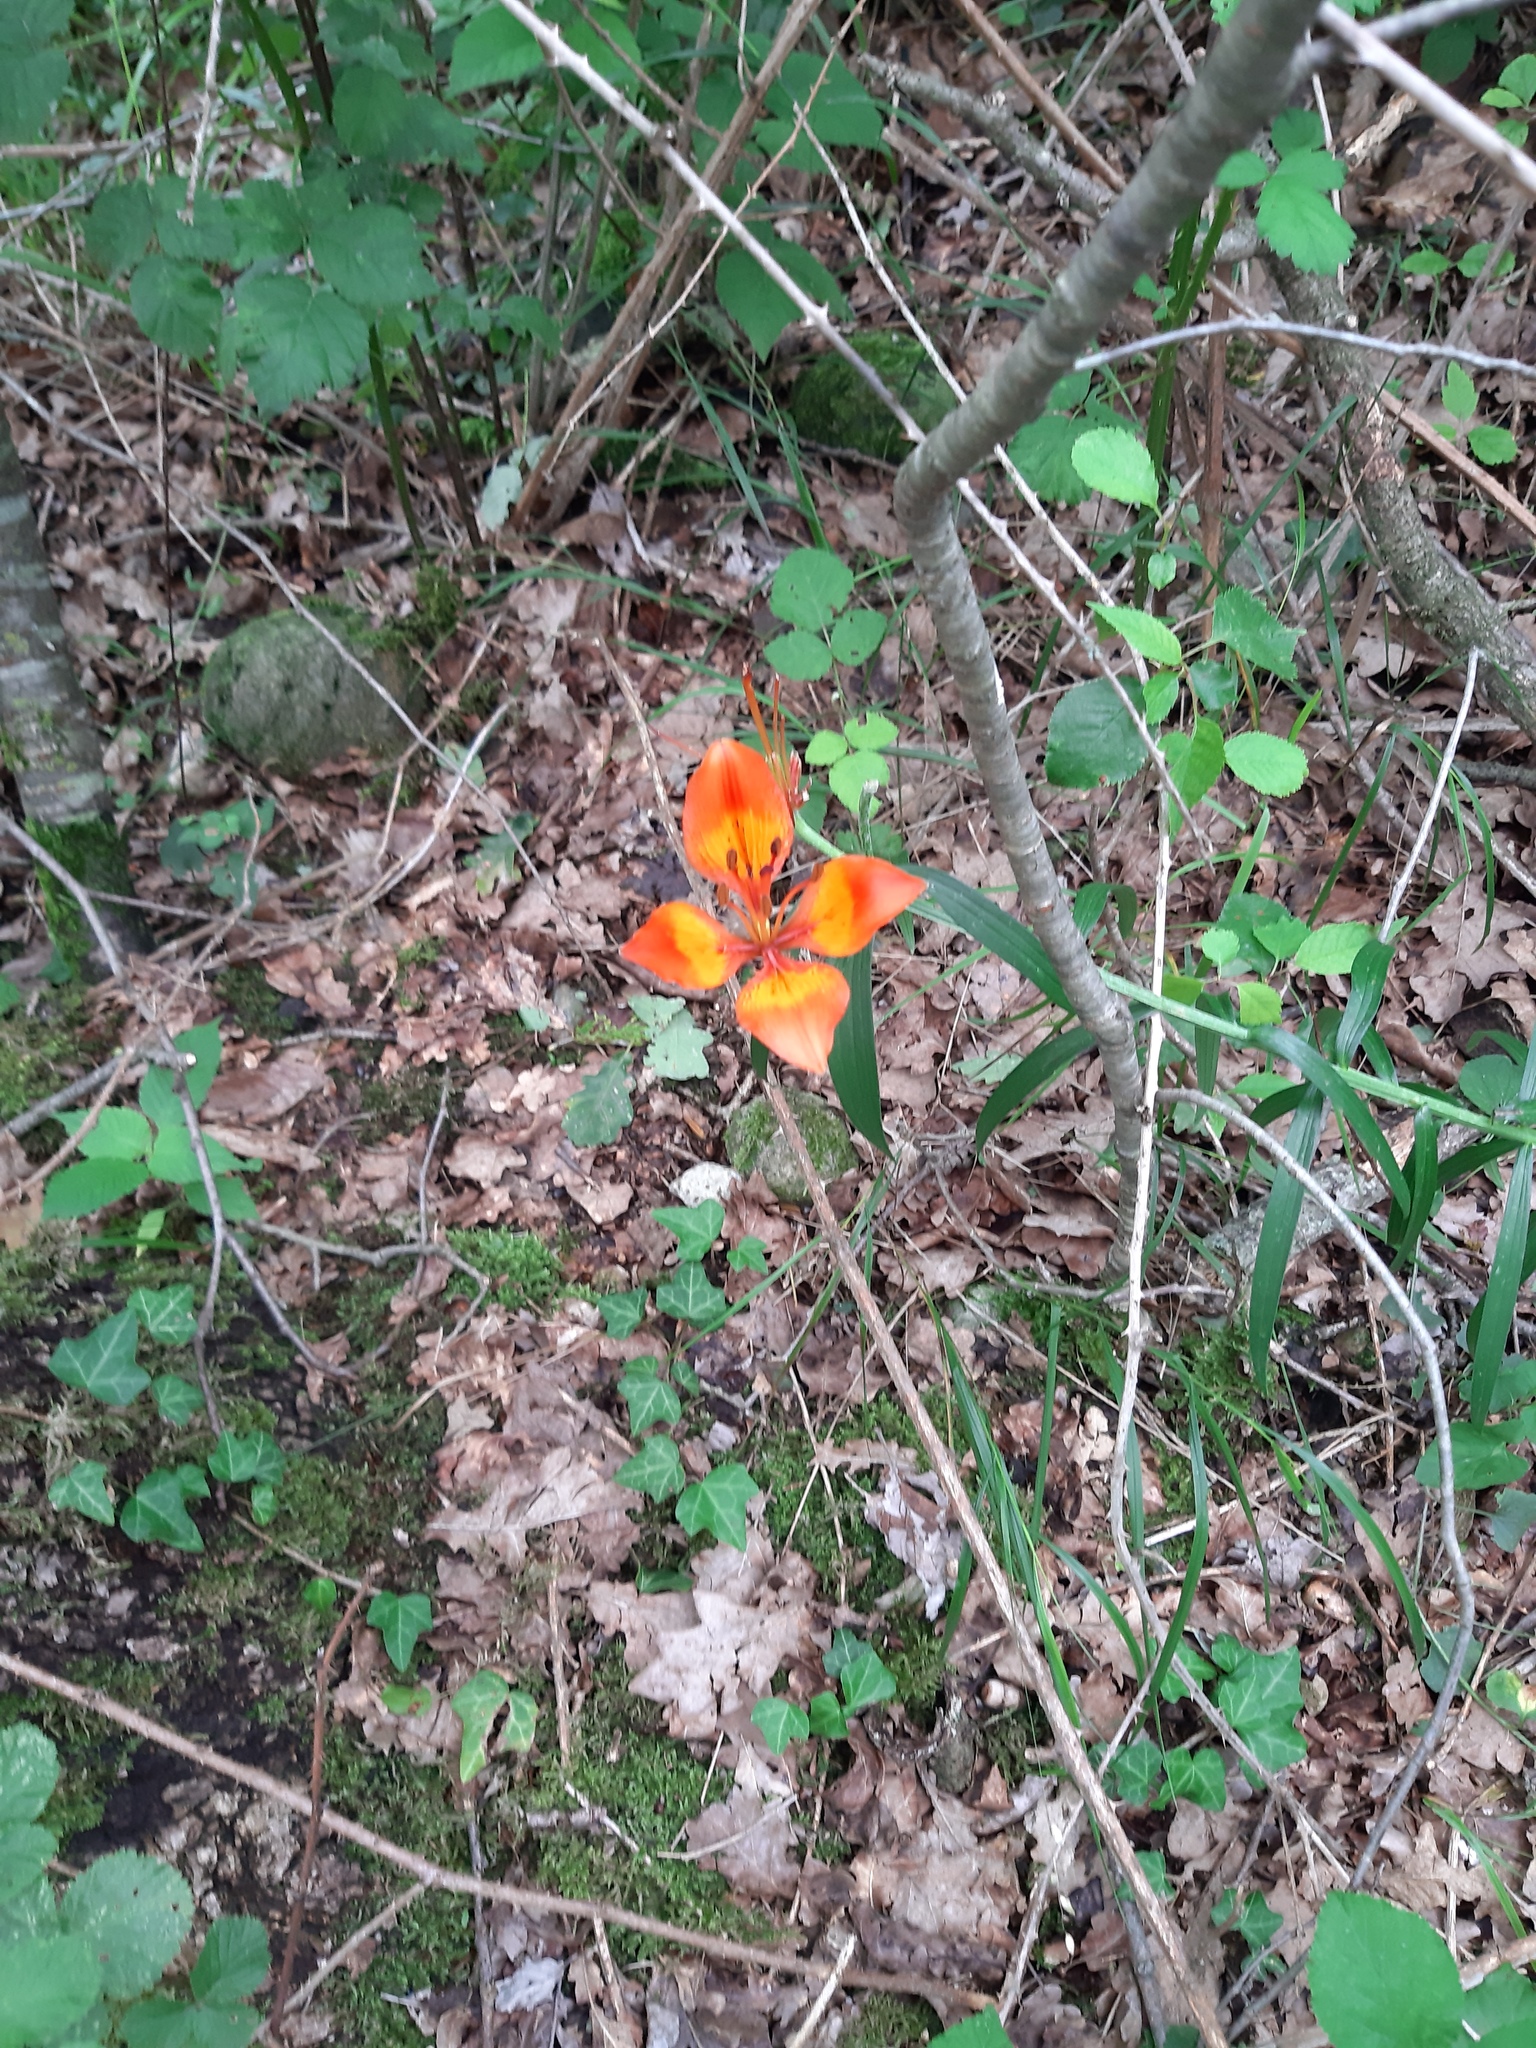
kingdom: Plantae
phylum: Tracheophyta
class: Liliopsida
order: Liliales
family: Liliaceae
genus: Lilium
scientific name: Lilium bulbiferum
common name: Orange lily
